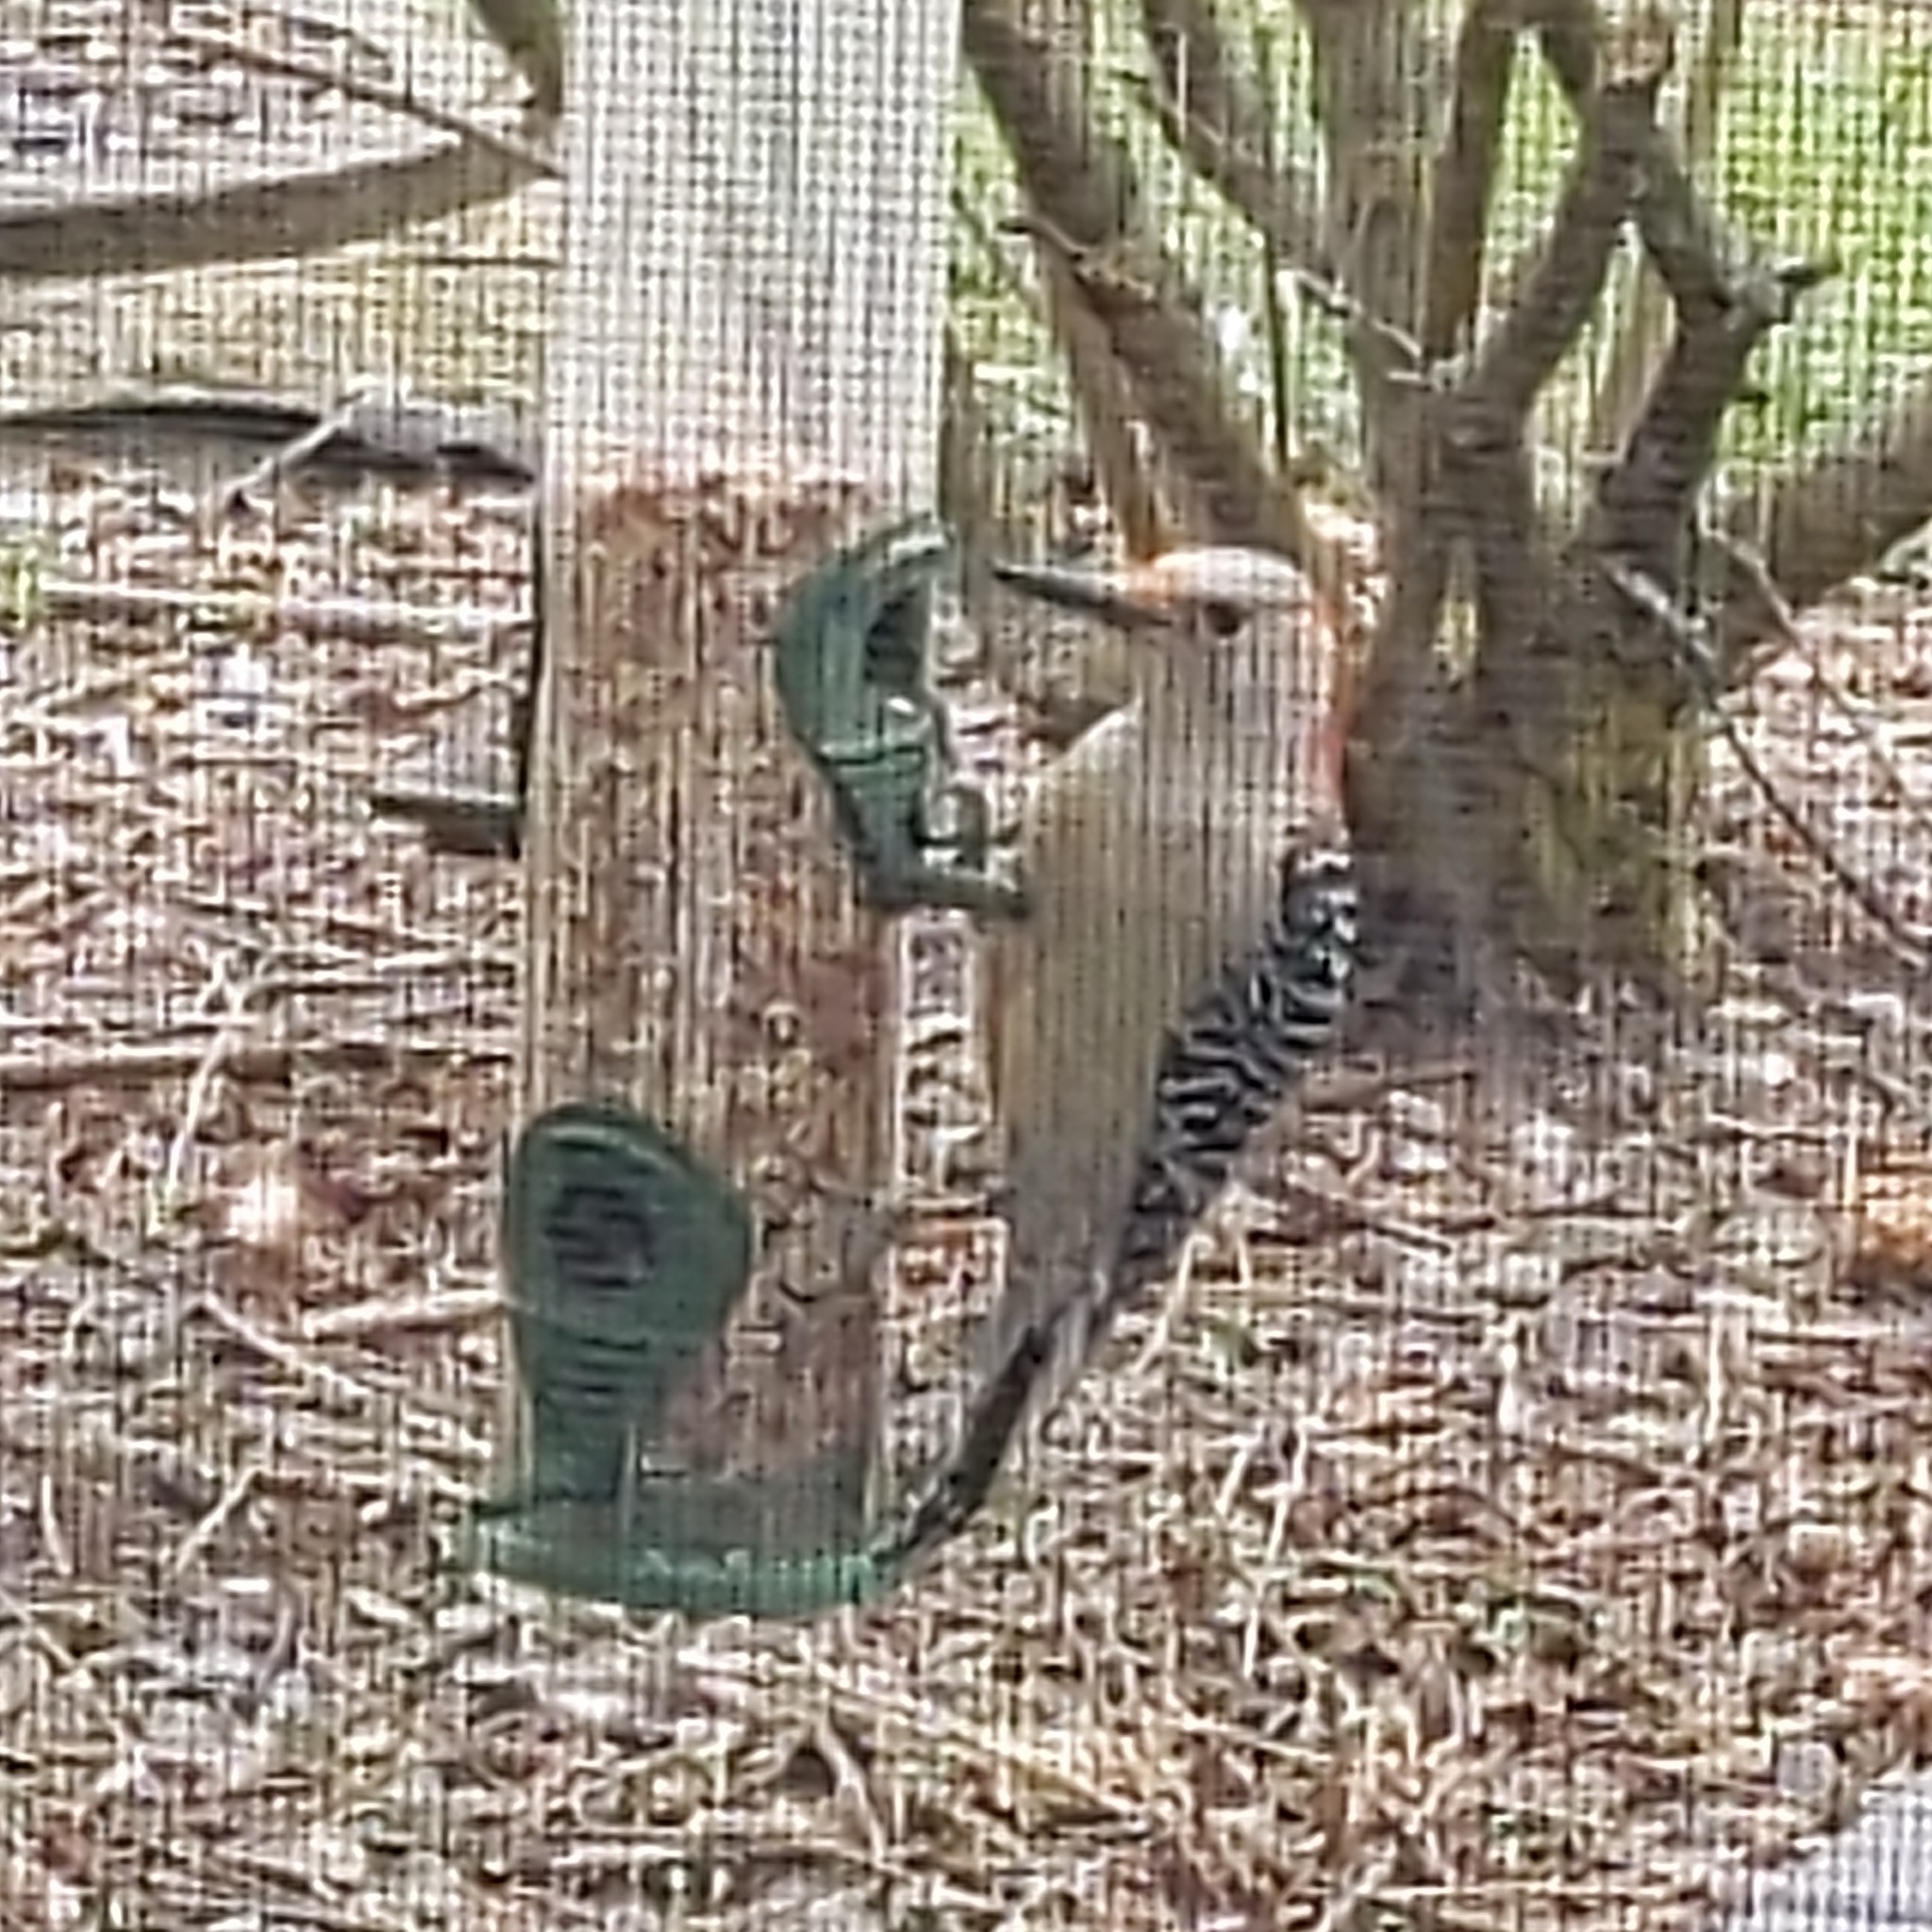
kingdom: Animalia
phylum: Chordata
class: Aves
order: Piciformes
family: Picidae
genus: Melanerpes
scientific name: Melanerpes carolinus
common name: Red-bellied woodpecker
